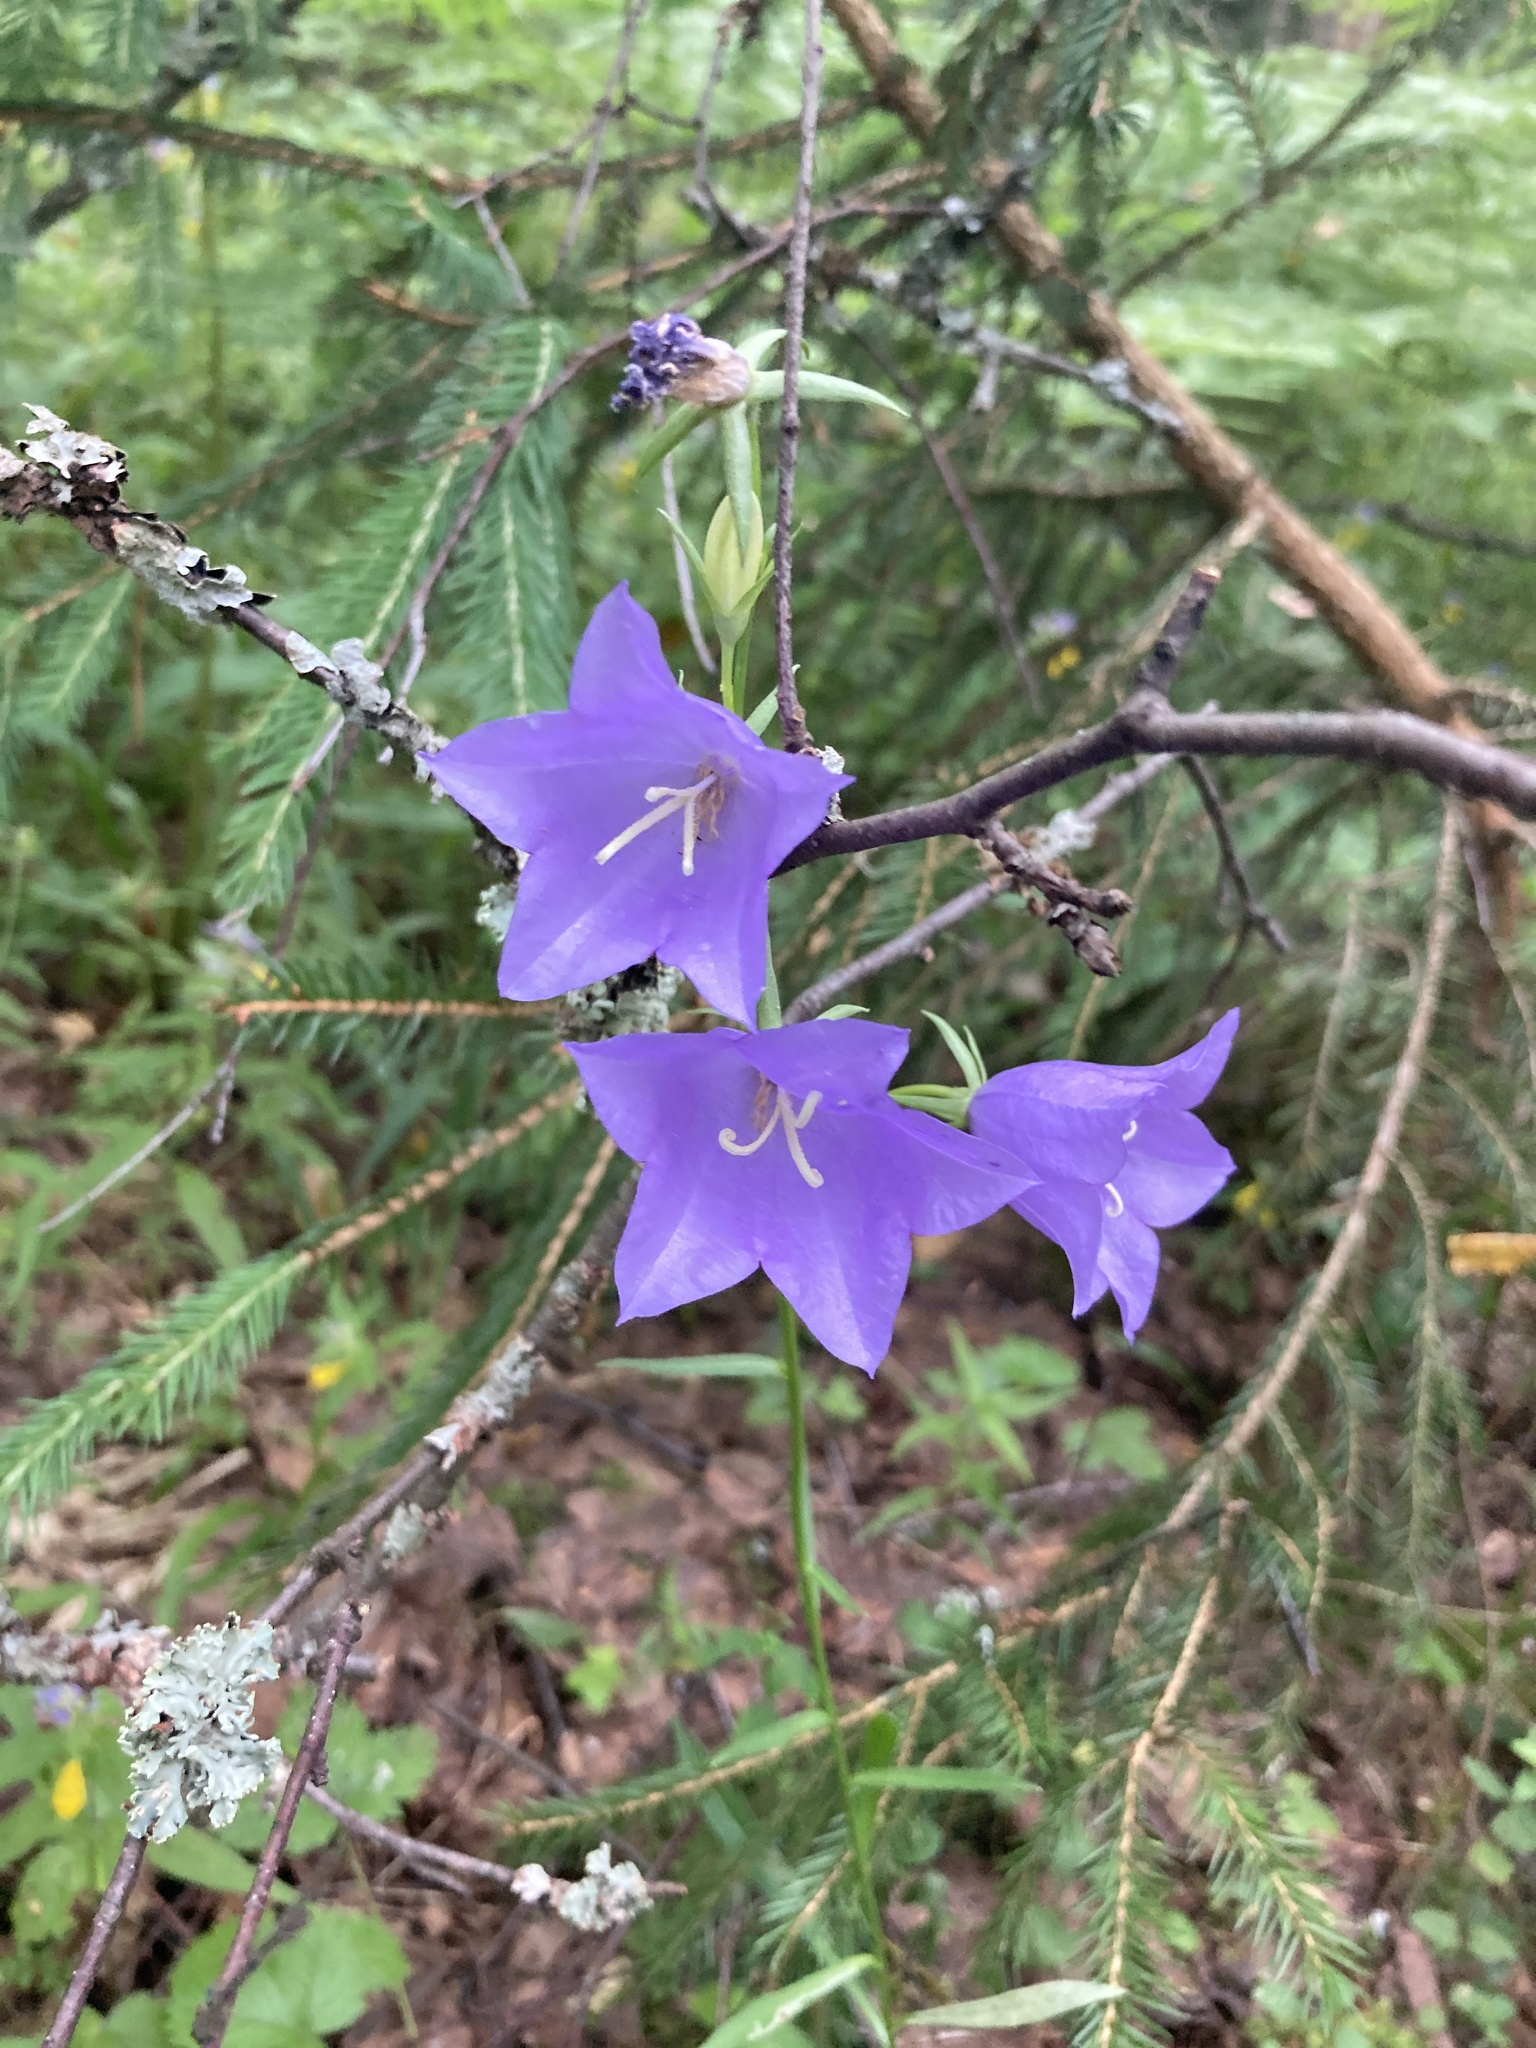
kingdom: Plantae
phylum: Tracheophyta
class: Magnoliopsida
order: Asterales
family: Campanulaceae
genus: Campanula
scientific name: Campanula persicifolia
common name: Peach-leaved bellflower
